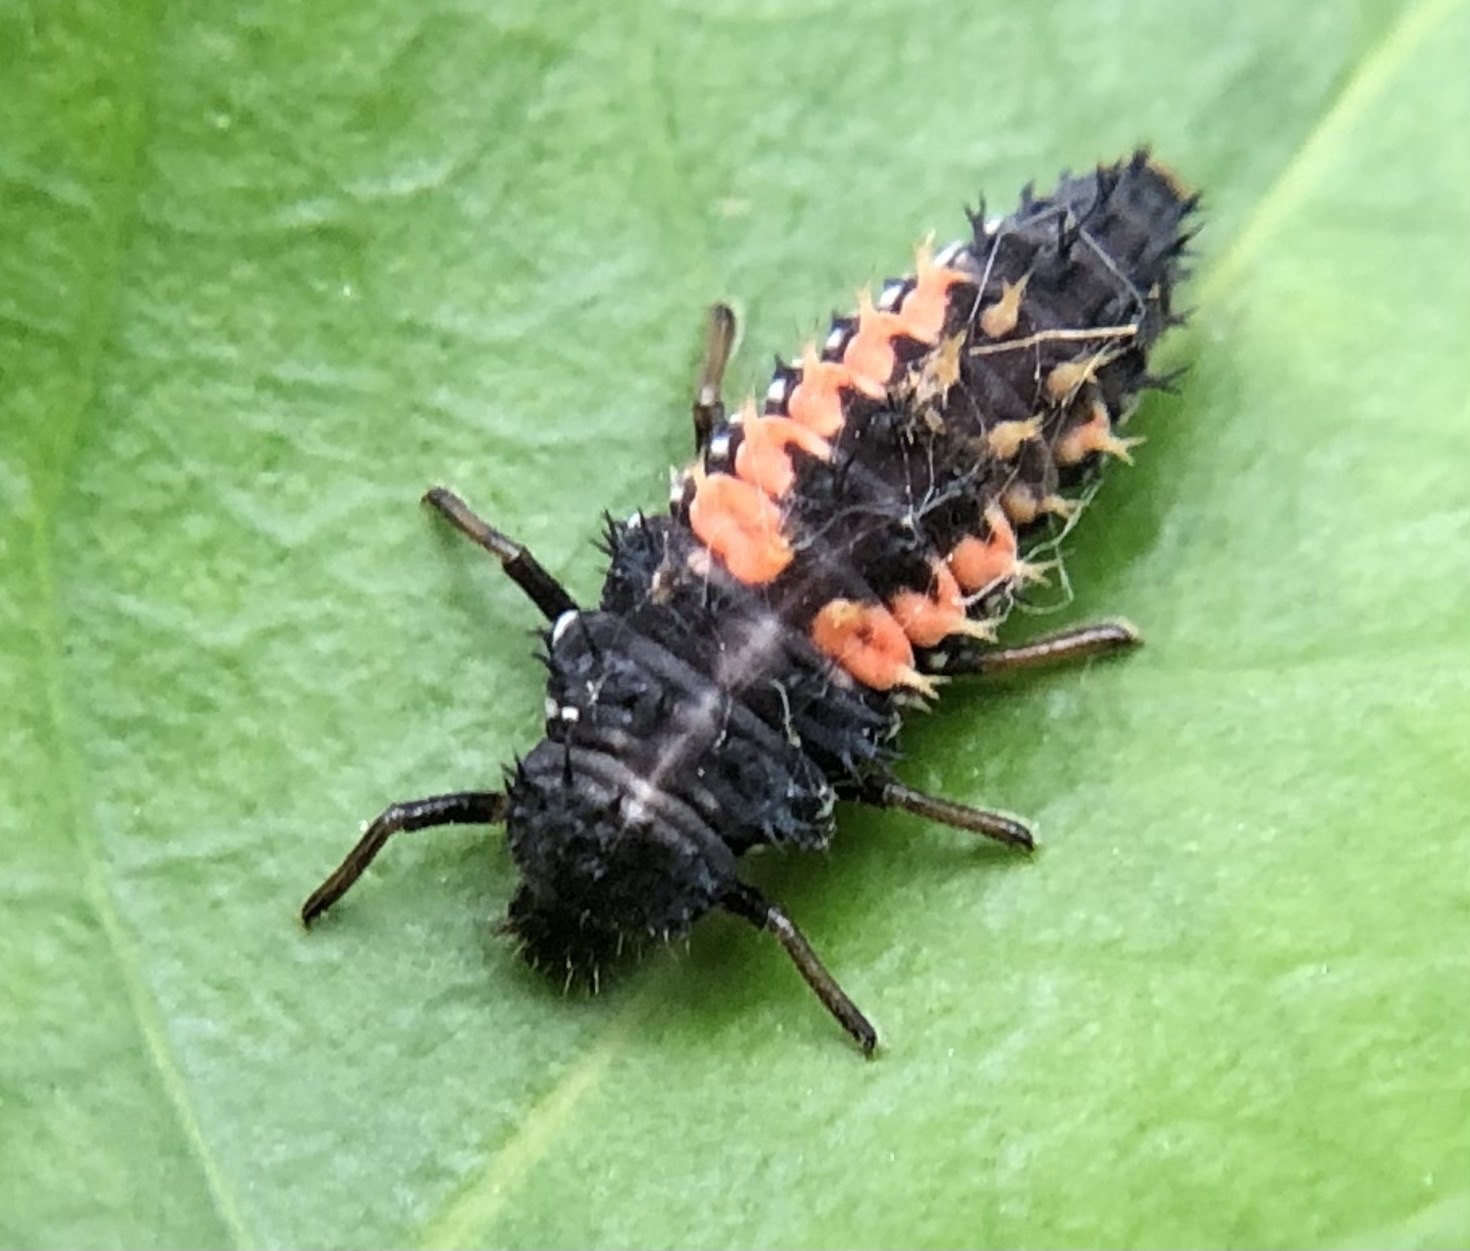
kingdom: Animalia
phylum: Arthropoda
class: Insecta
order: Coleoptera
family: Coccinellidae
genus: Harmonia
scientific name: Harmonia axyridis
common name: Harlequin ladybird
